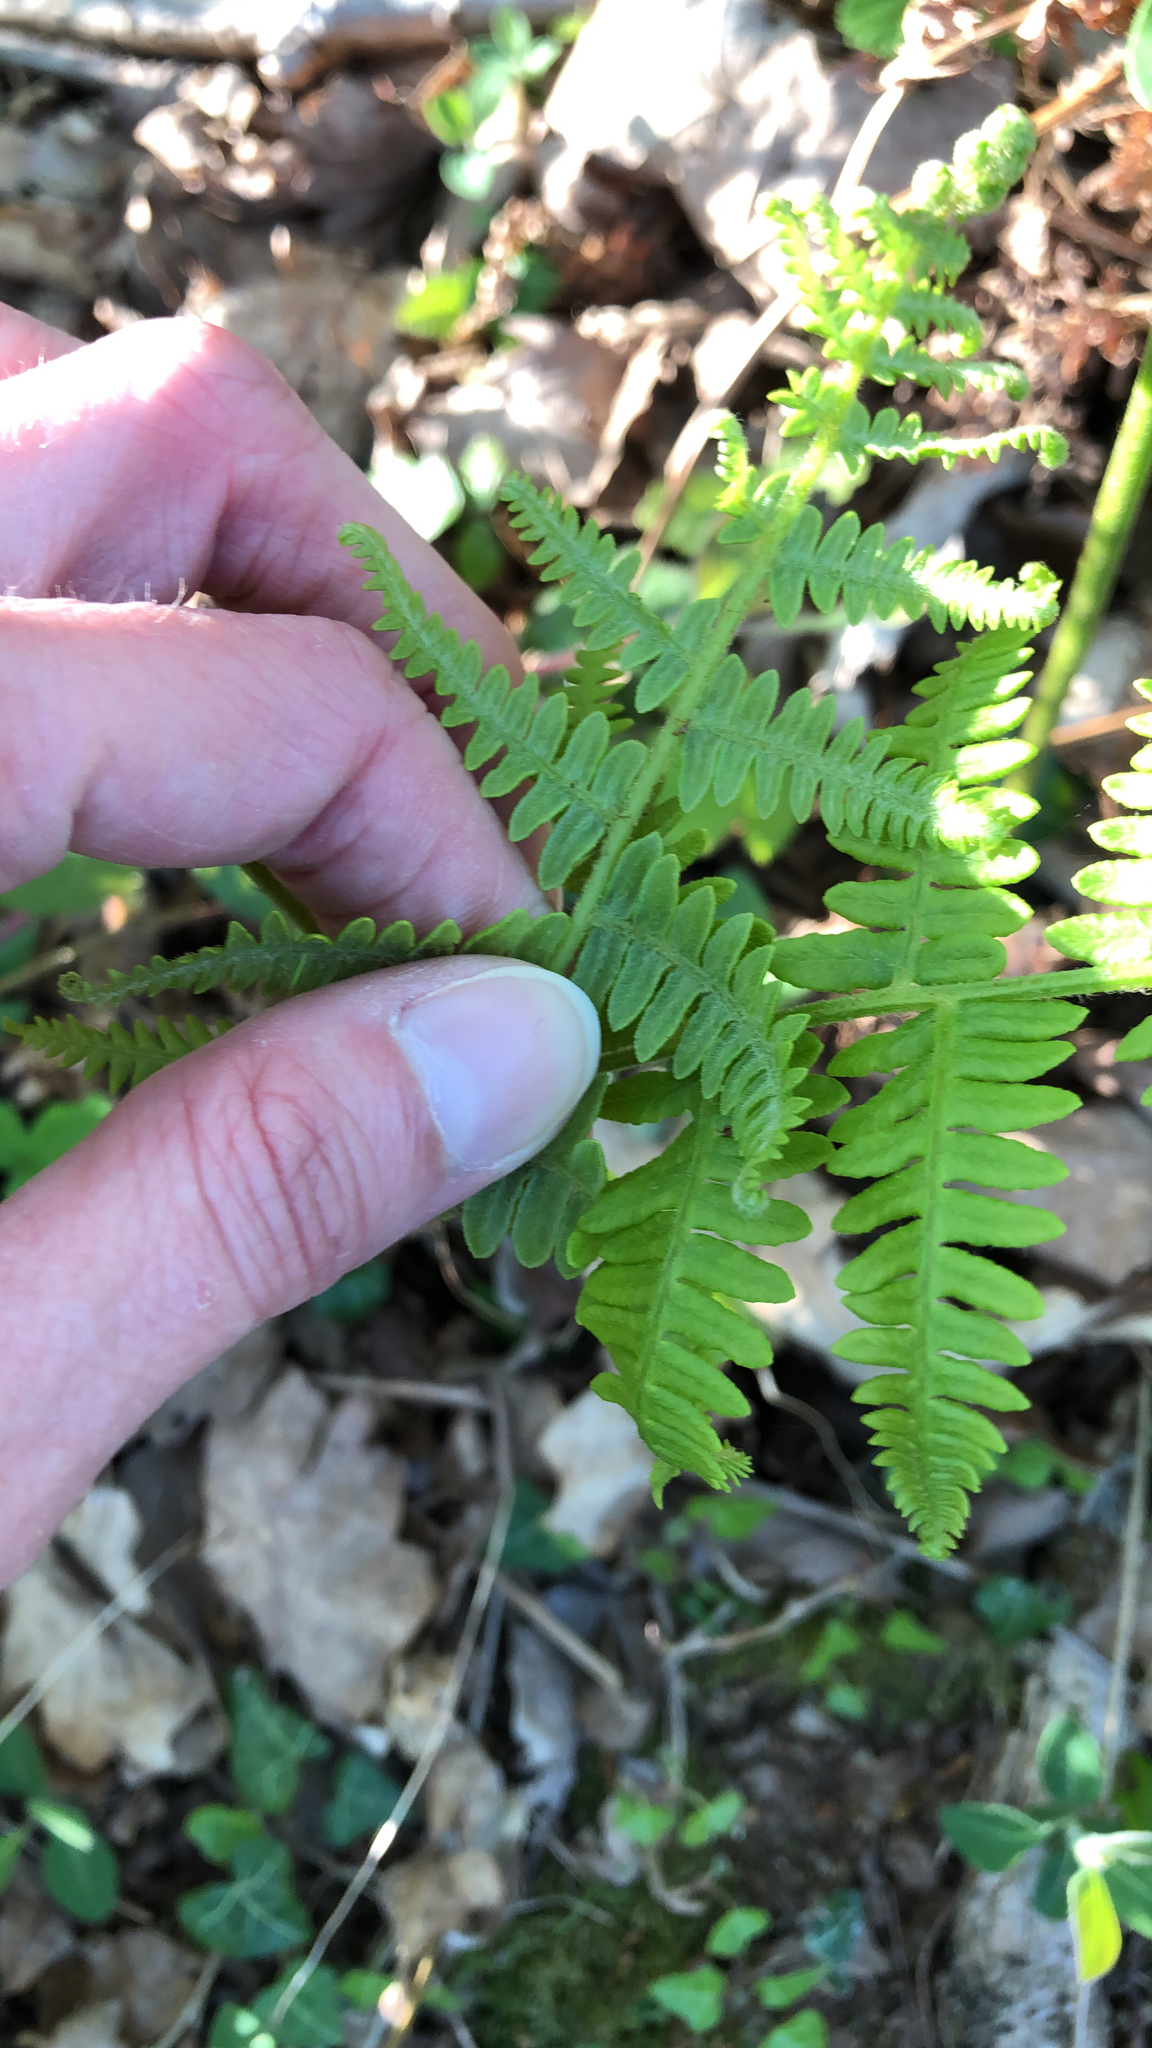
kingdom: Plantae
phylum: Tracheophyta
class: Polypodiopsida
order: Polypodiales
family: Dennstaedtiaceae
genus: Pteridium
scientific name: Pteridium aquilinum
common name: Bracken
